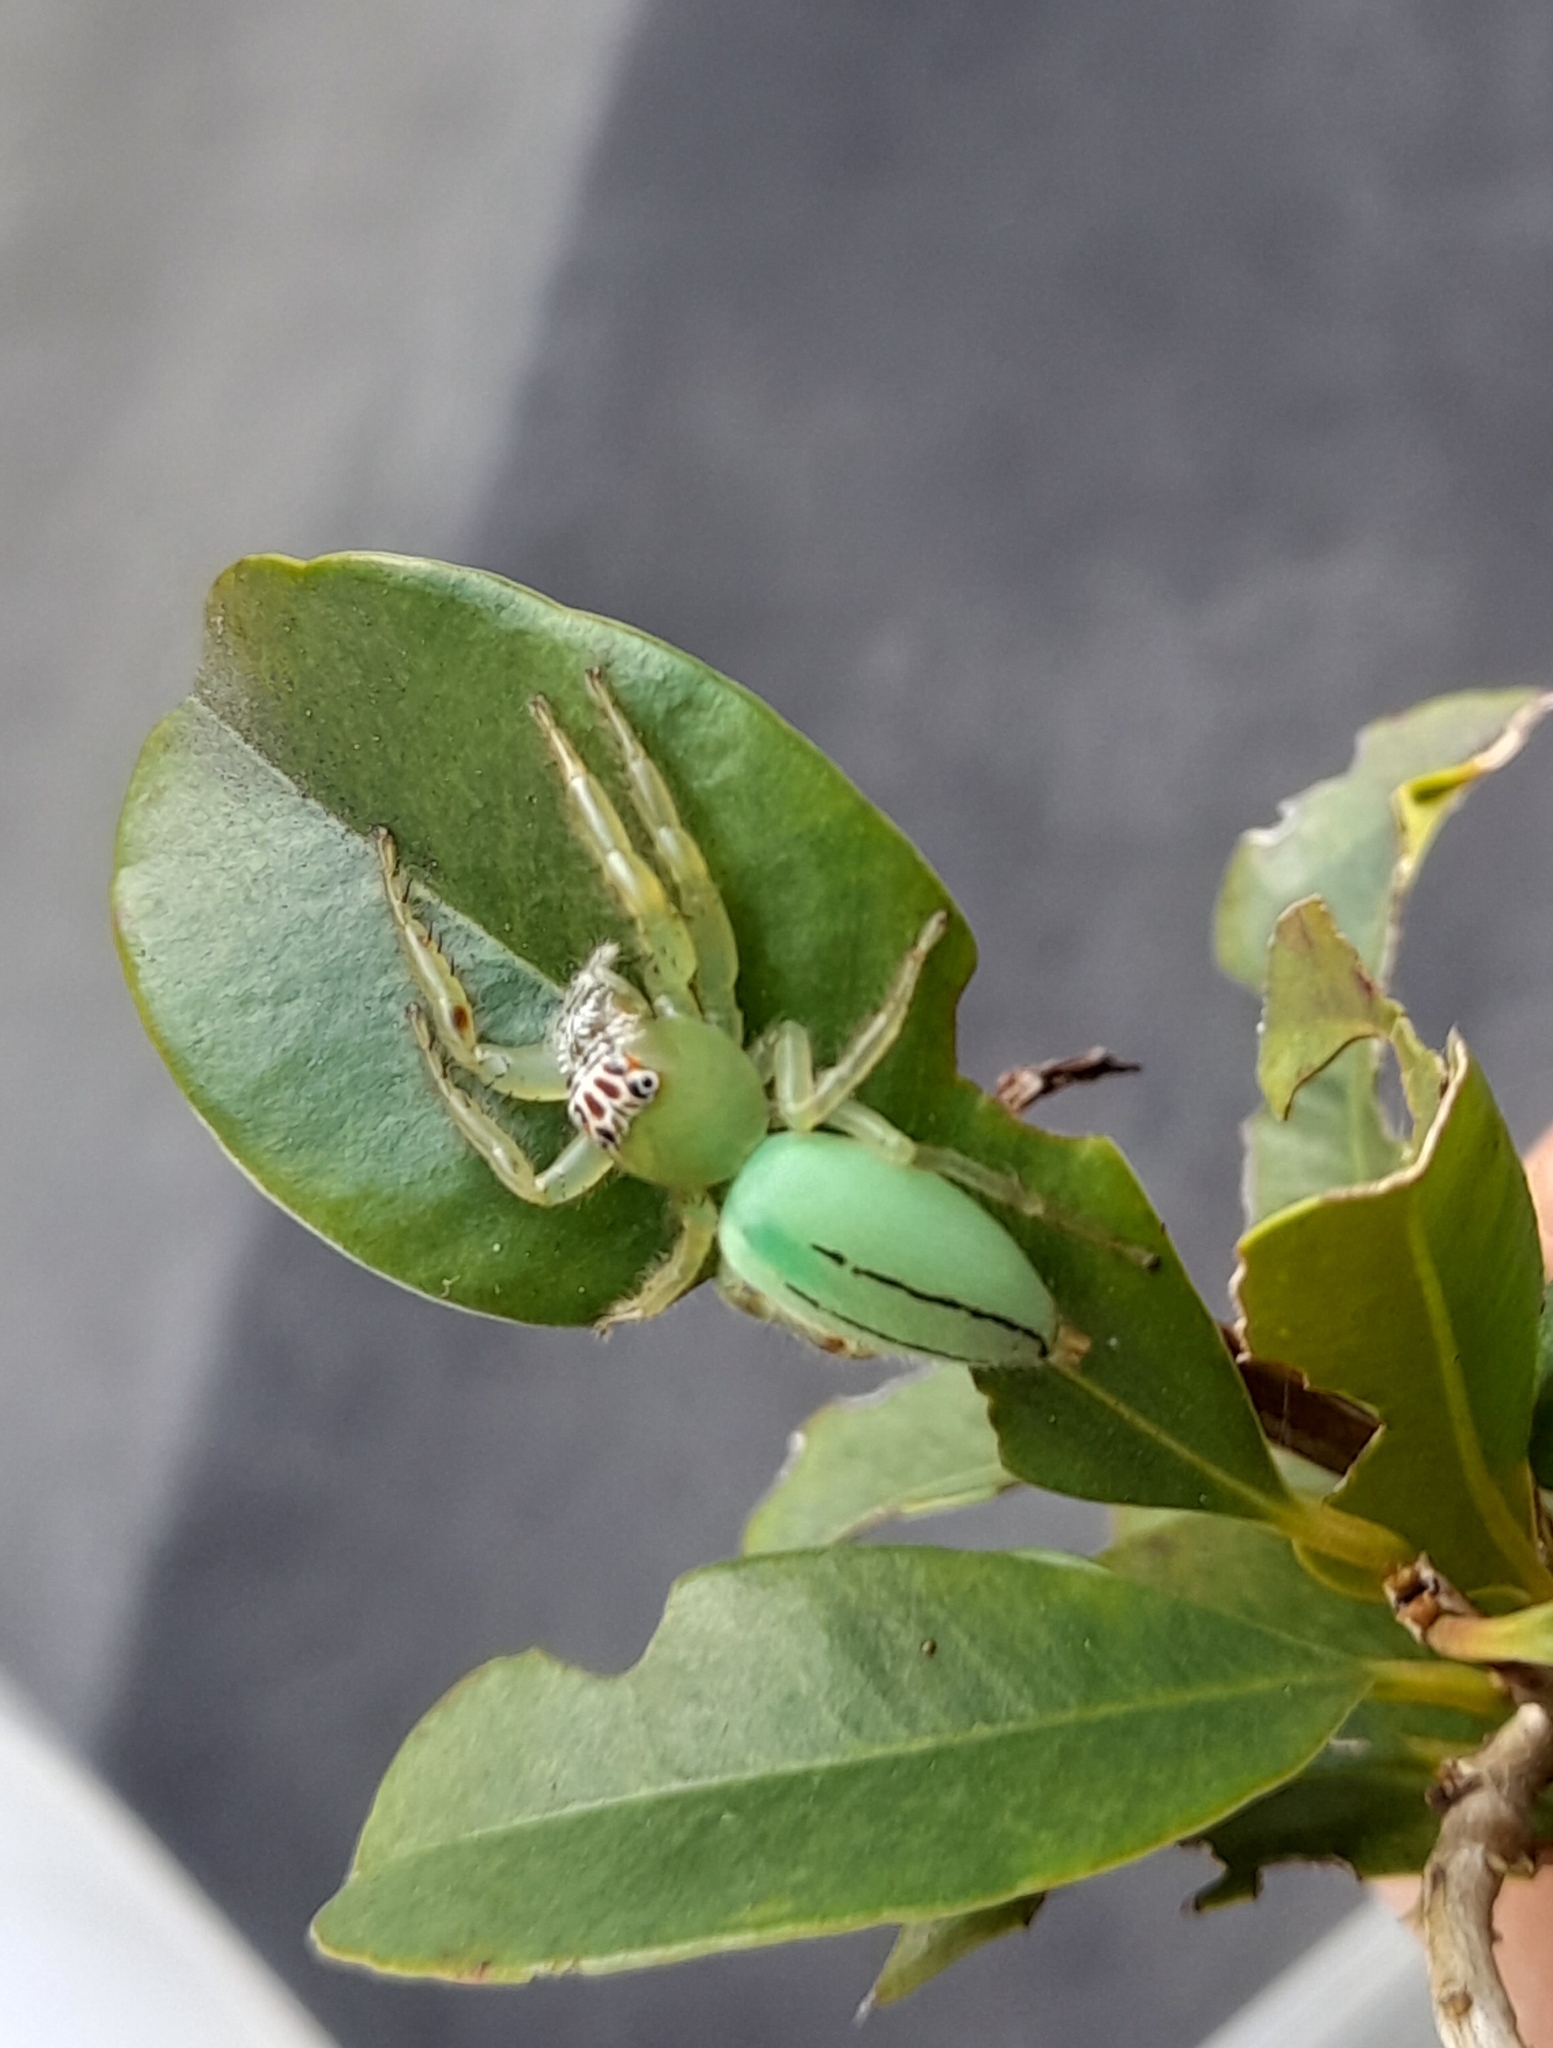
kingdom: Animalia
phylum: Arthropoda
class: Arachnida
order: Araneae
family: Salticidae
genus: Mopsus
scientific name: Mopsus mormon
